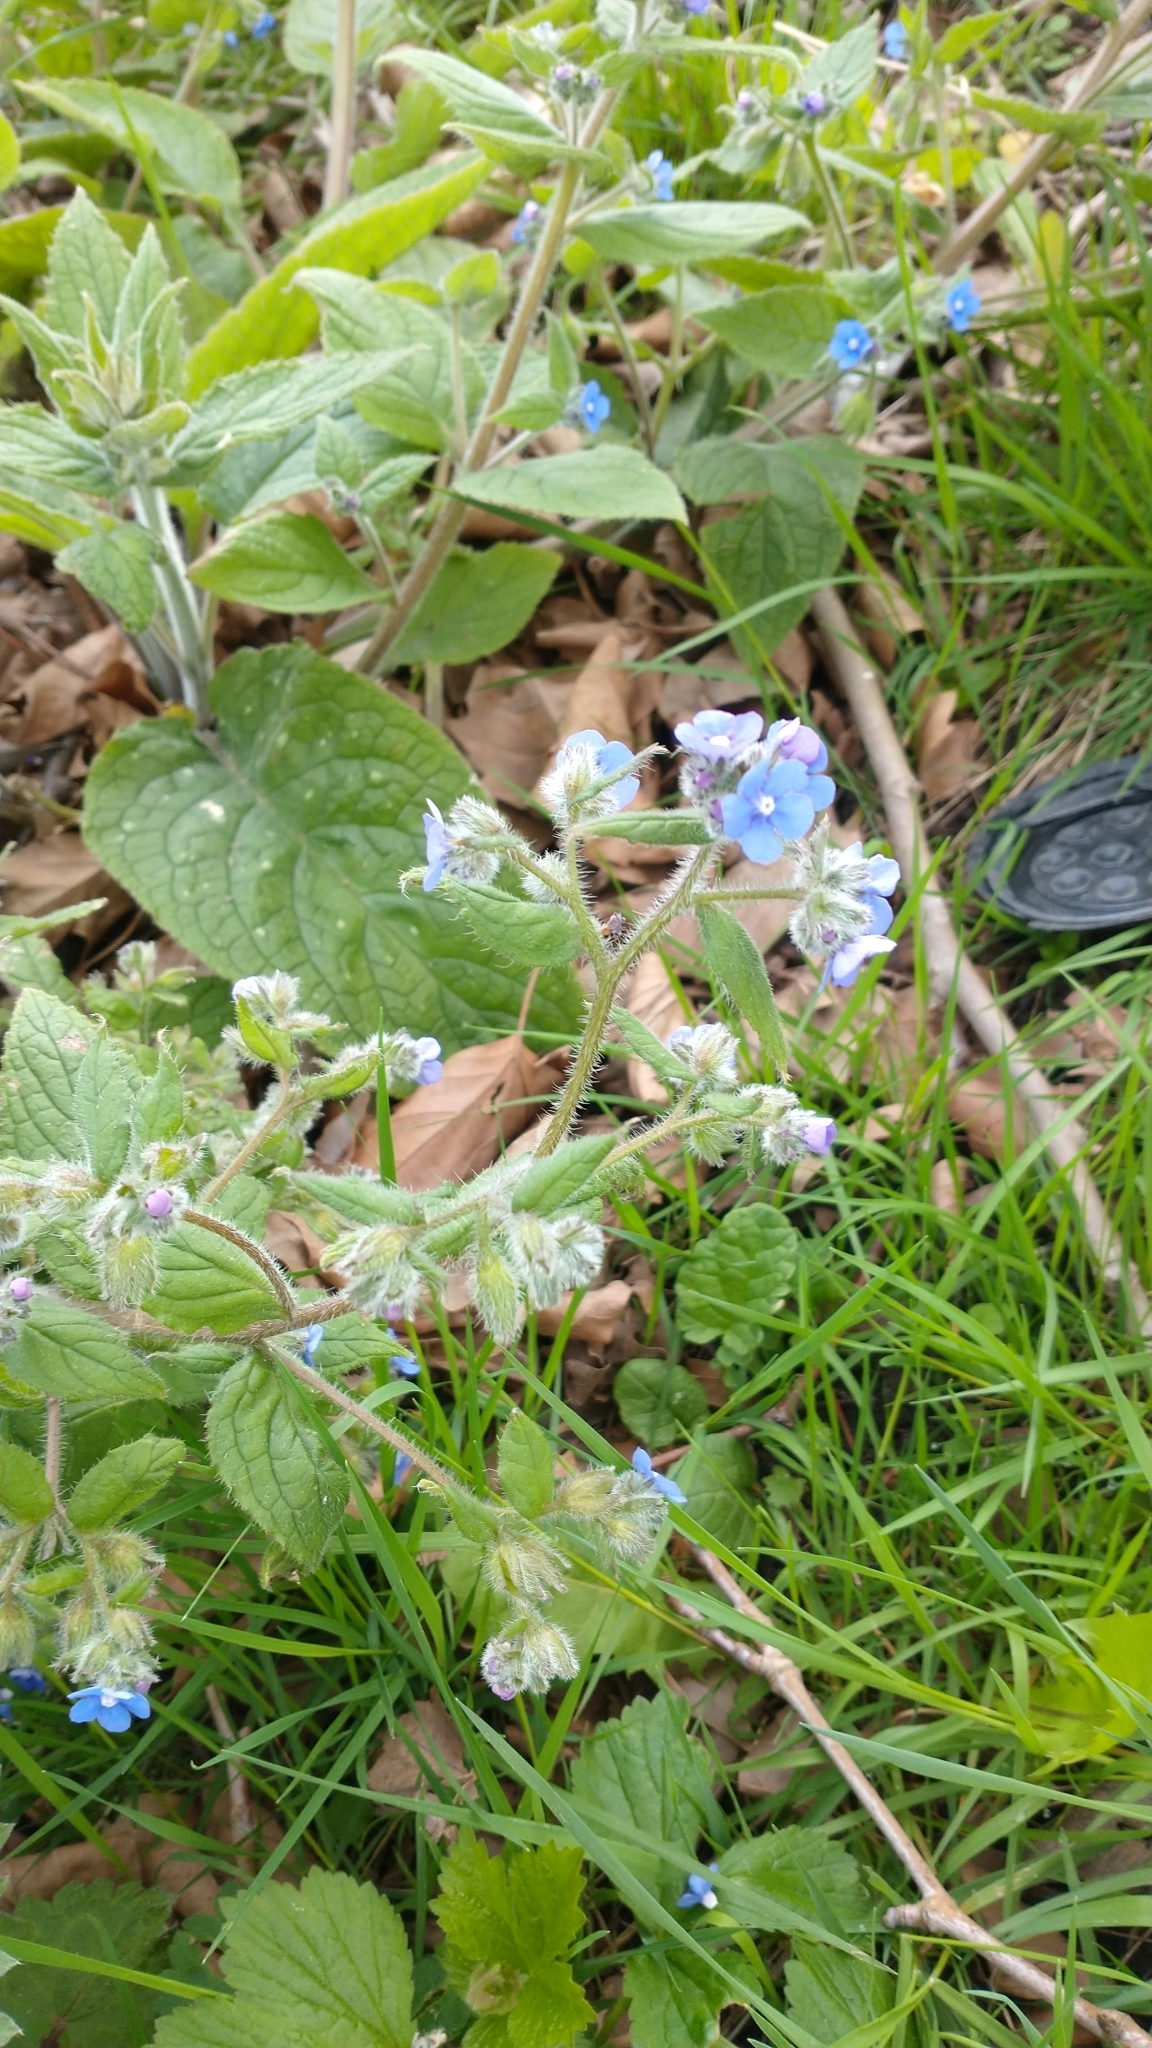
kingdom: Plantae
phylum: Tracheophyta
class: Magnoliopsida
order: Boraginales
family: Boraginaceae
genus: Pentaglottis
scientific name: Pentaglottis sempervirens
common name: Green alkanet
